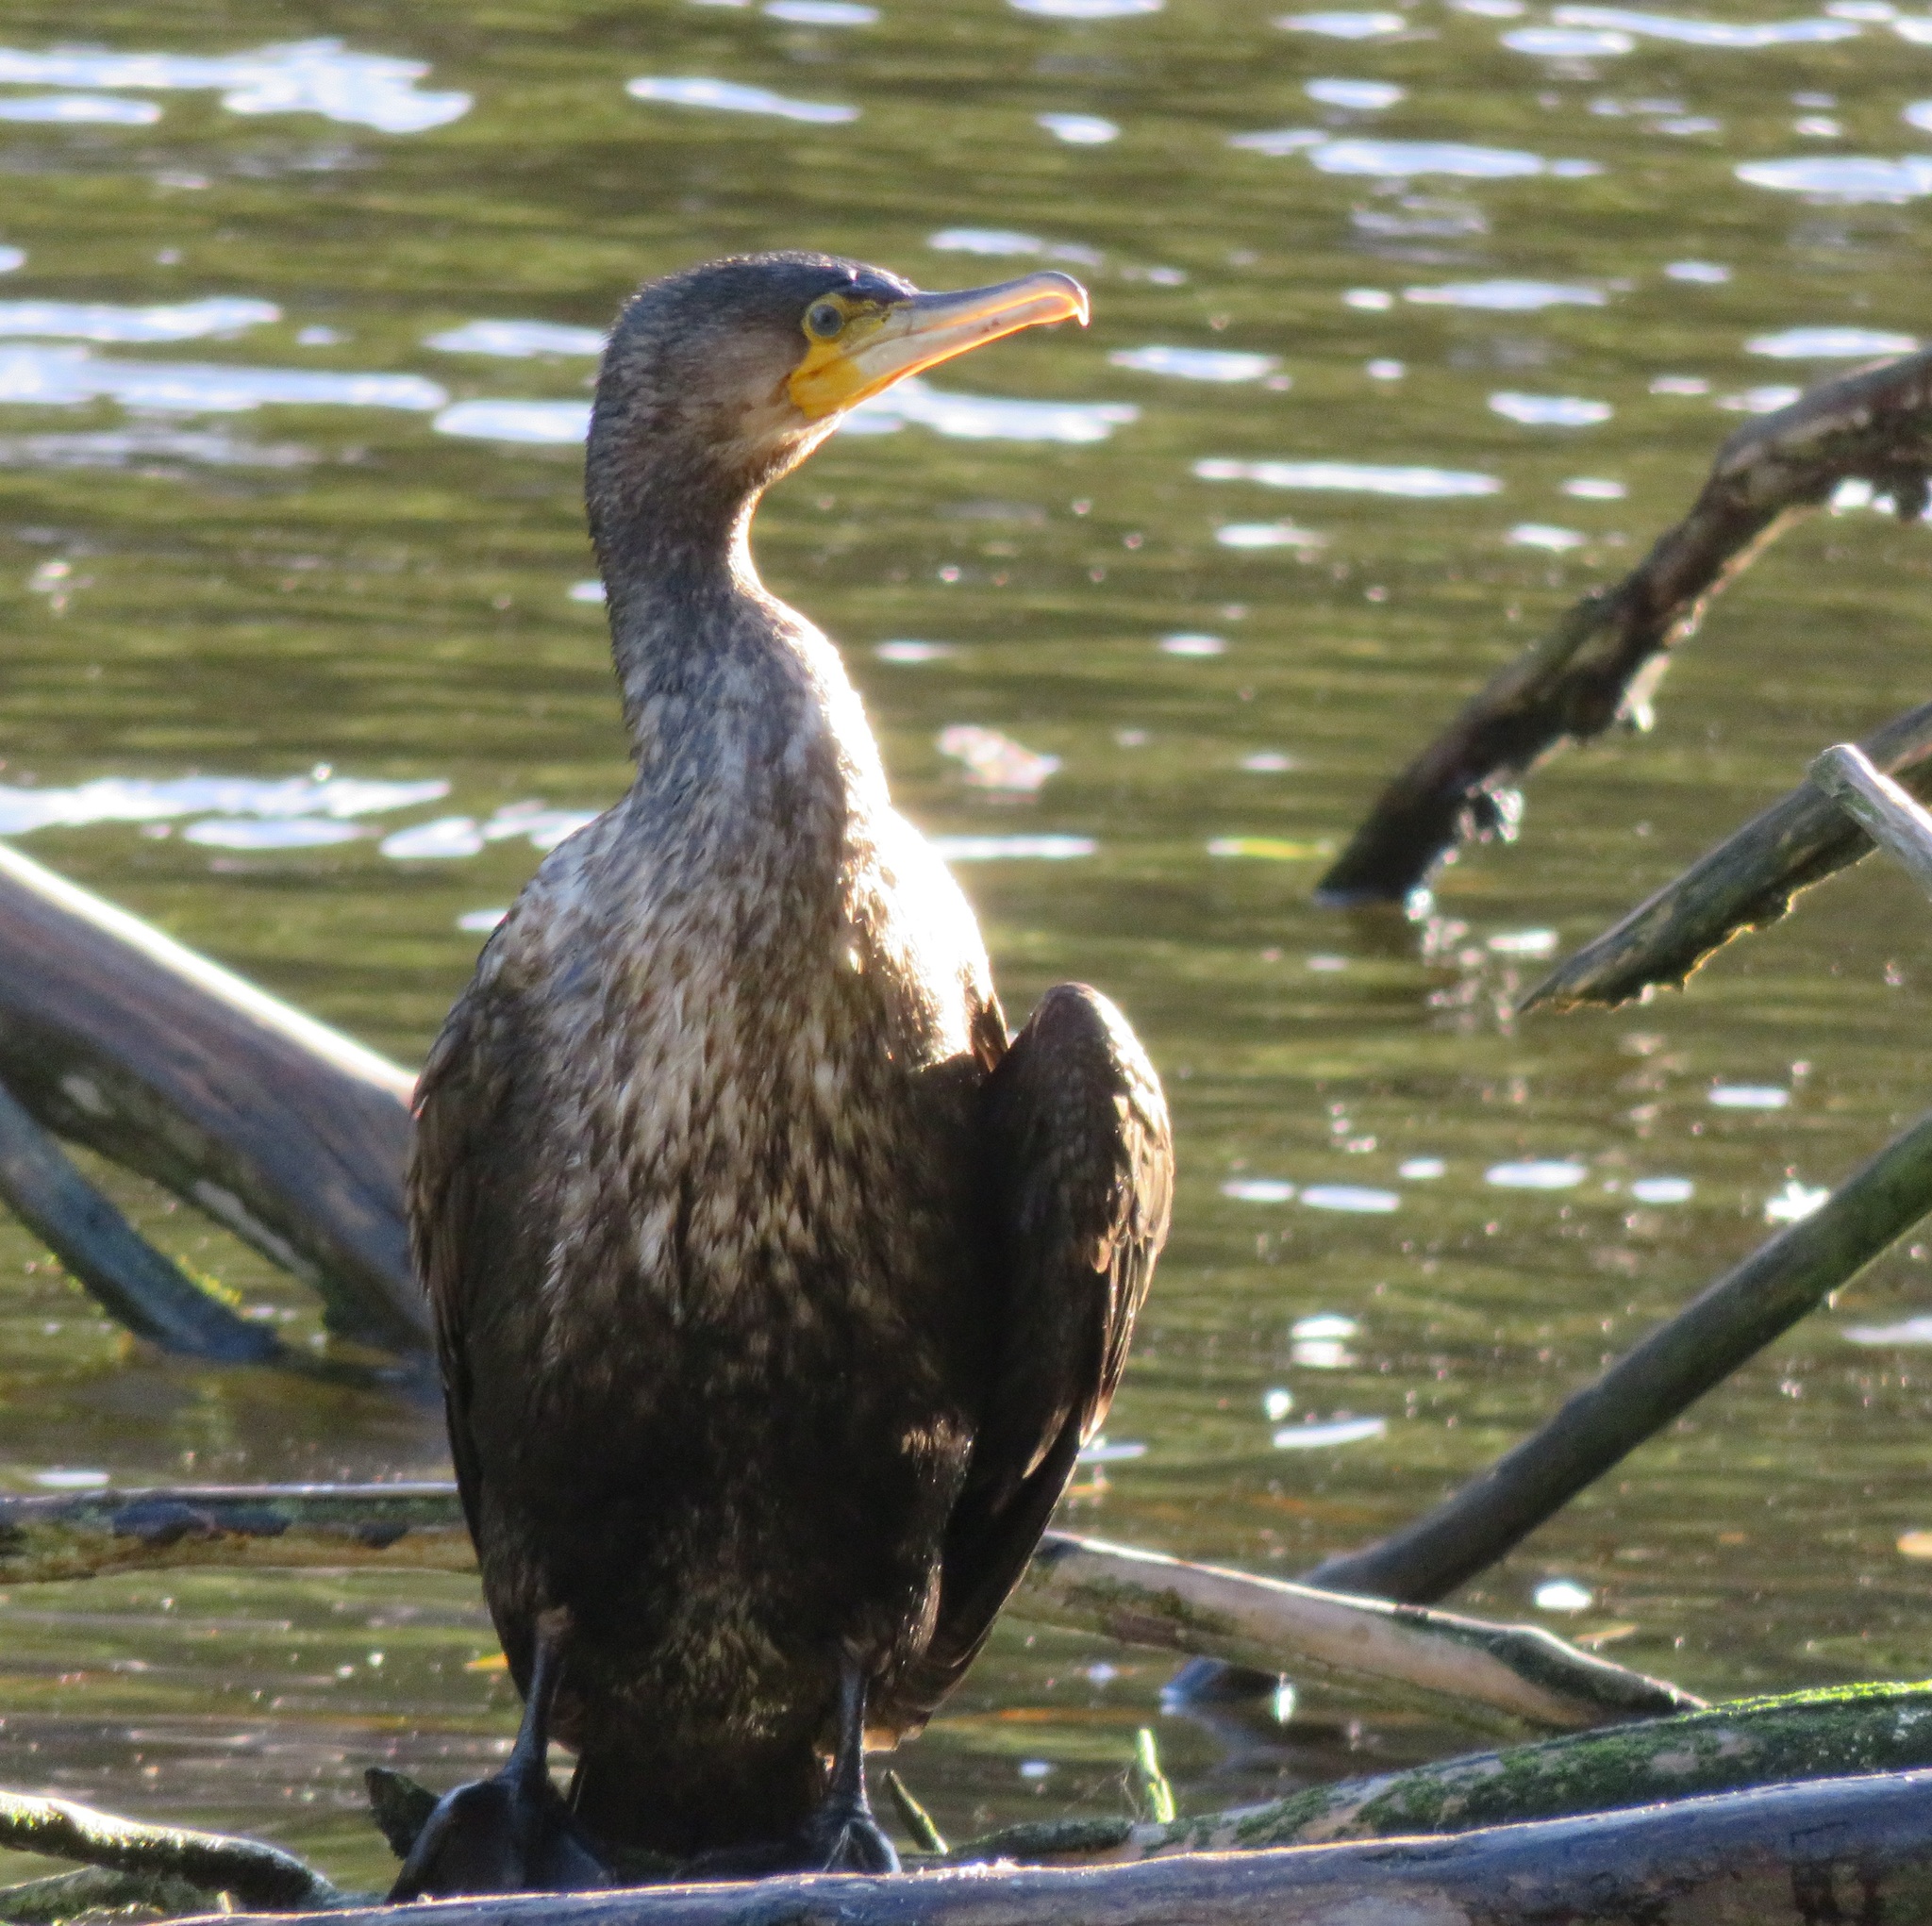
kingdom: Animalia
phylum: Chordata
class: Aves
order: Suliformes
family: Phalacrocoracidae
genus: Phalacrocorax
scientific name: Phalacrocorax carbo
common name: Great cormorant
